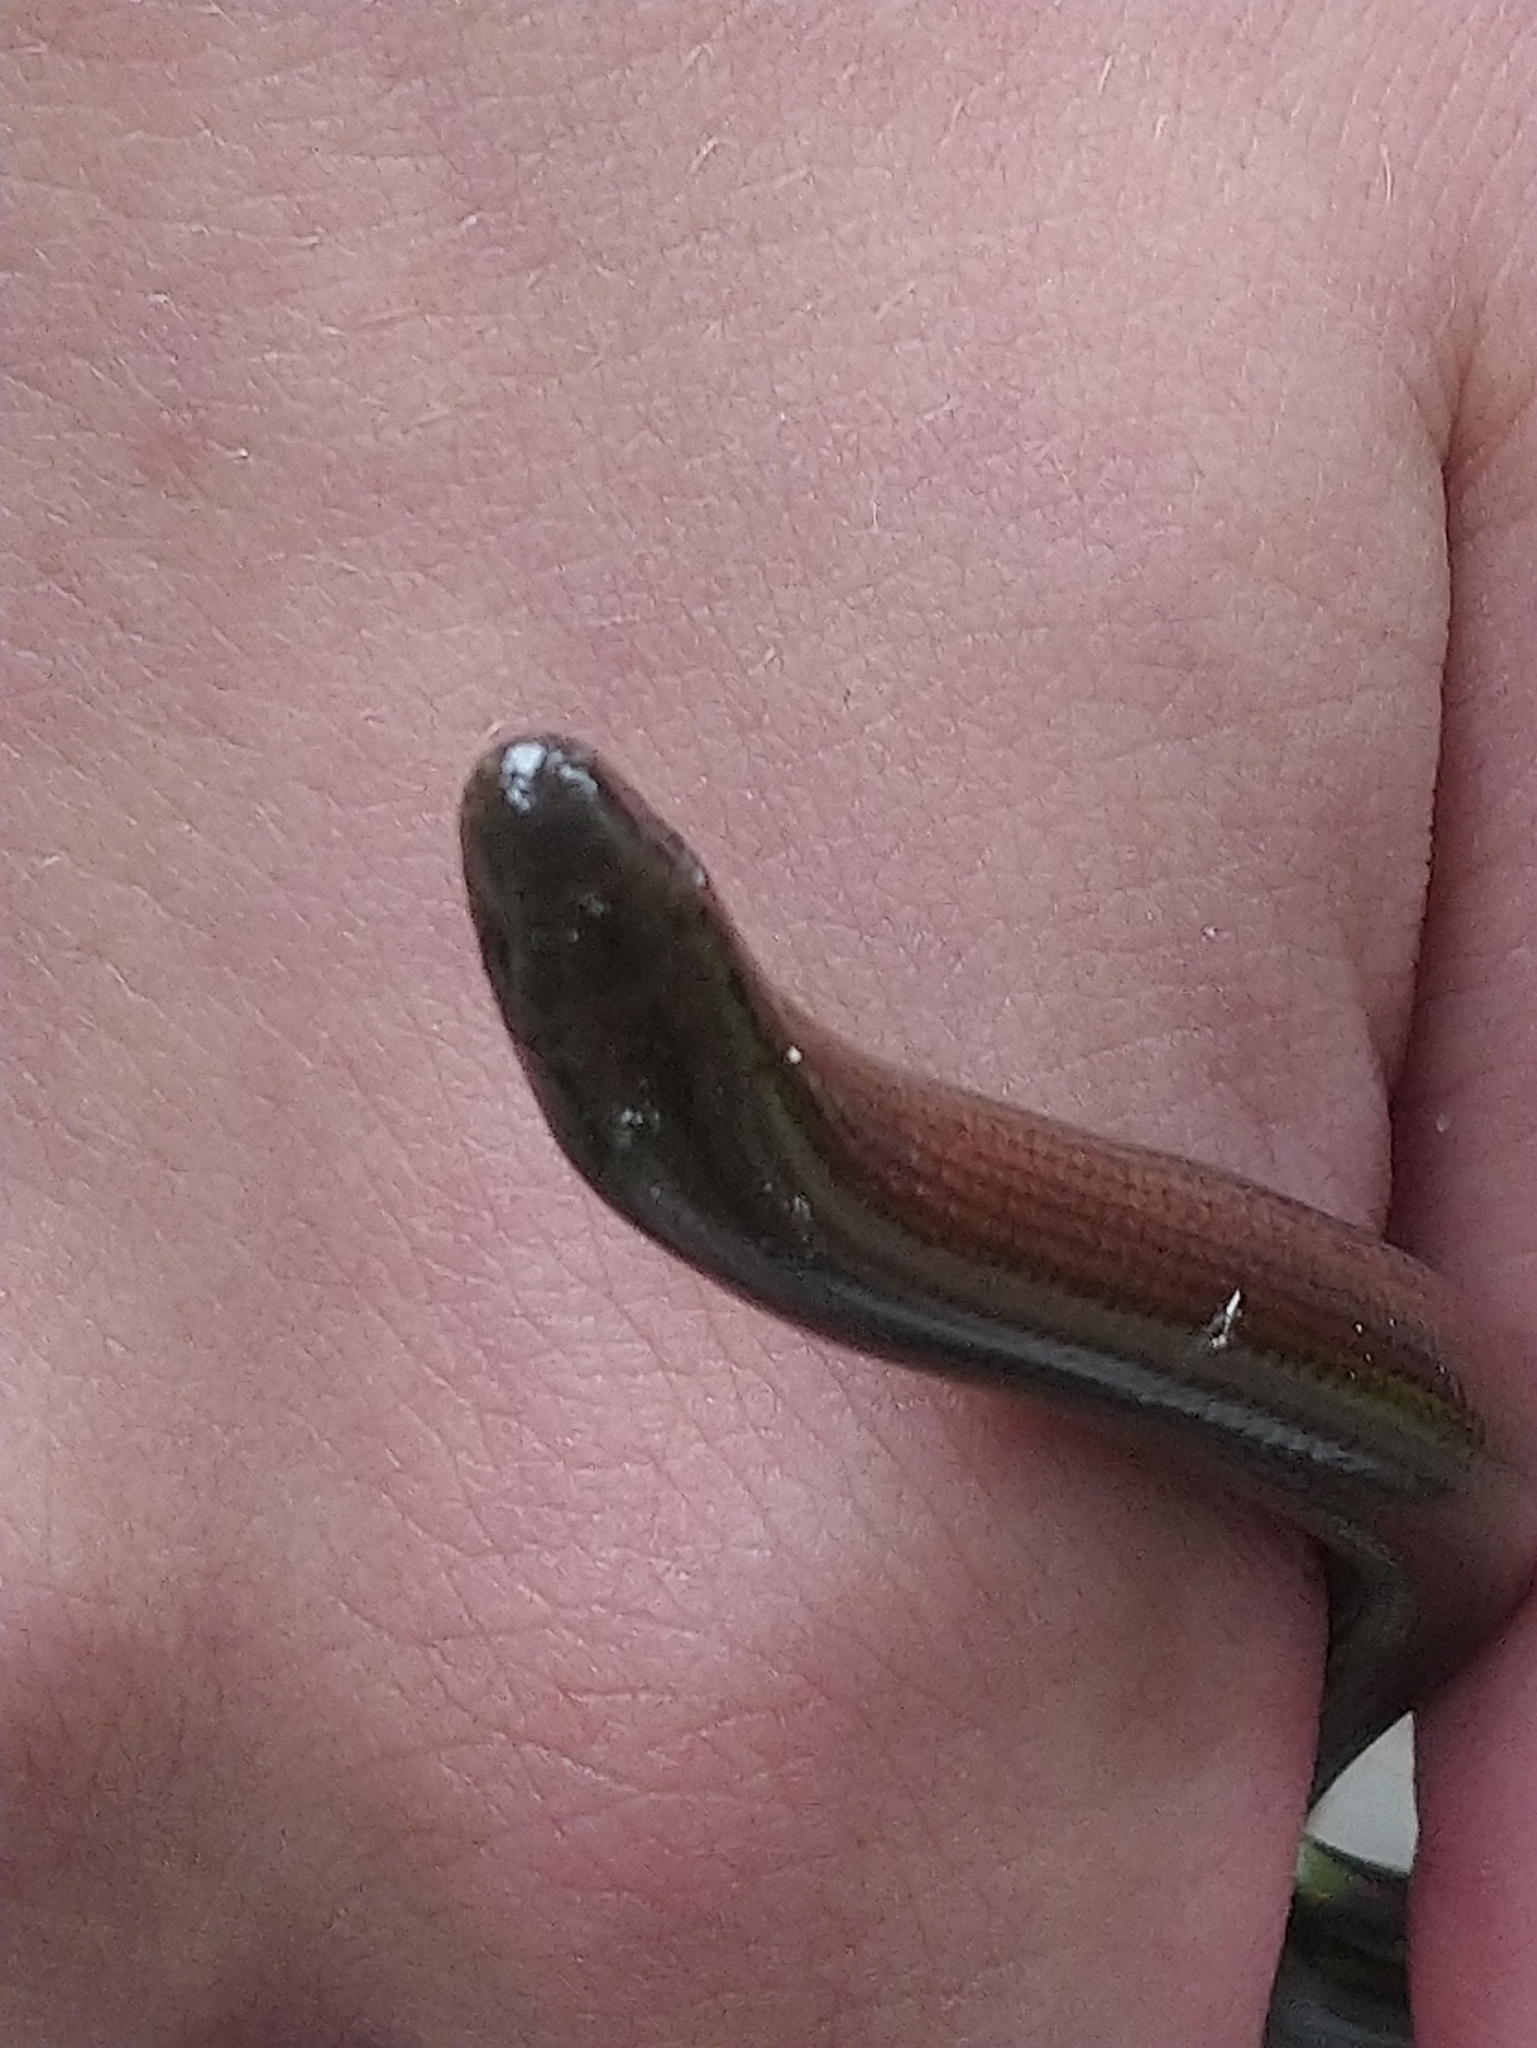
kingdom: Animalia
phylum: Chordata
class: Squamata
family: Anguidae
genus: Anguis
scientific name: Anguis fragilis
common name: Slow worm
